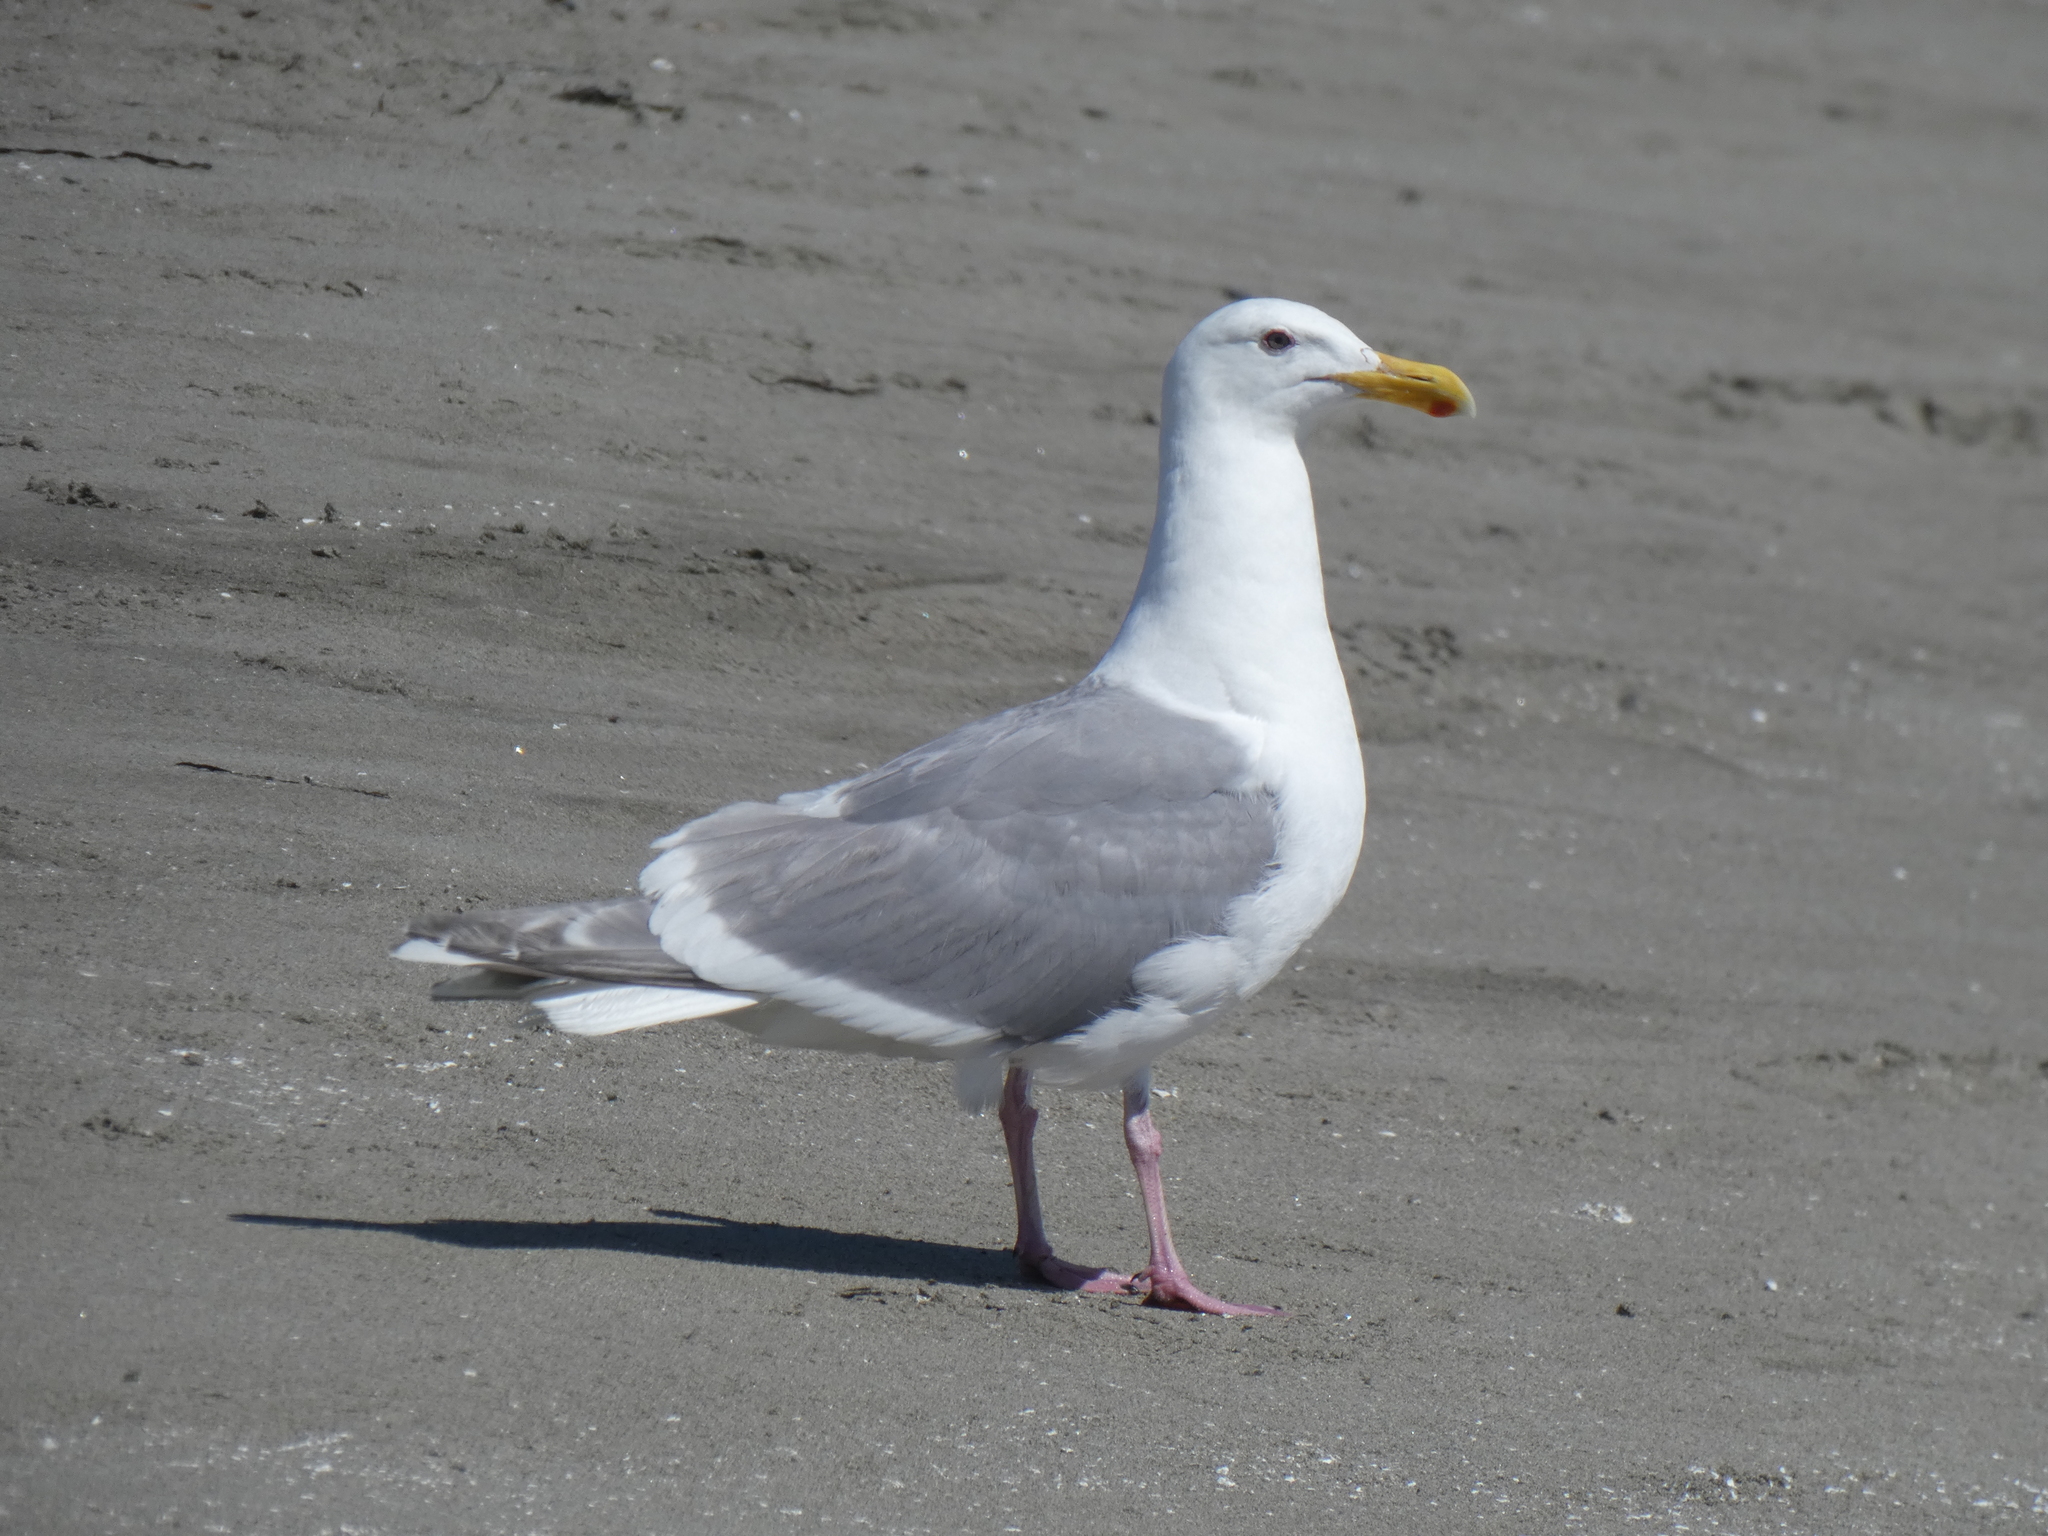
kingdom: Animalia
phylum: Chordata
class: Aves
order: Charadriiformes
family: Laridae
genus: Larus
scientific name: Larus
